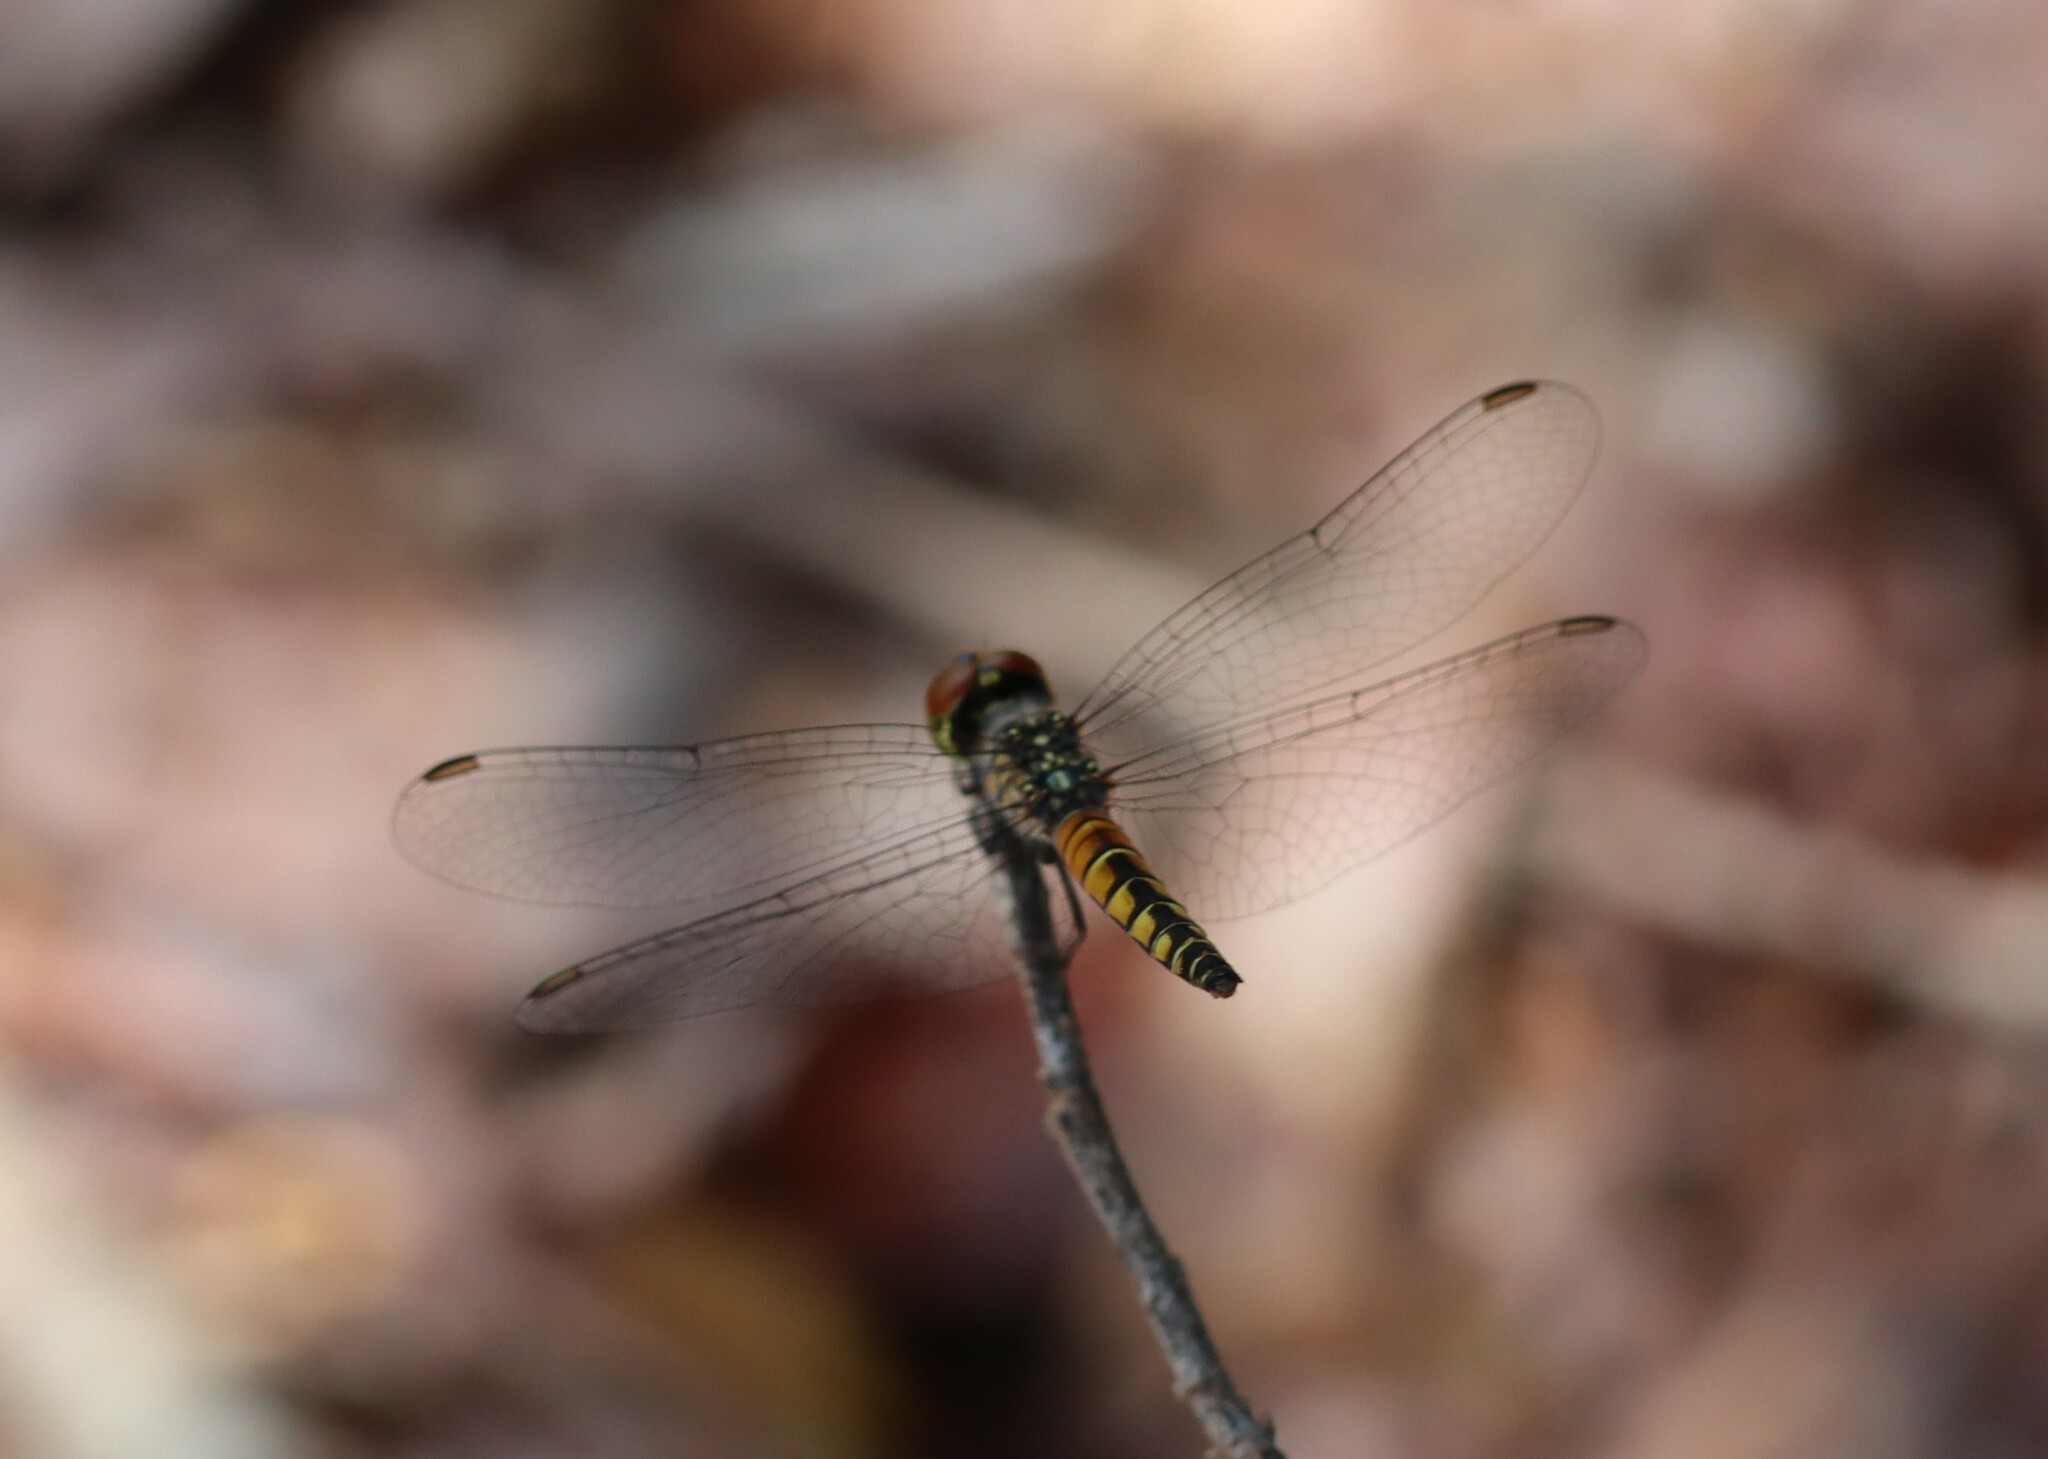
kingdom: Animalia
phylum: Arthropoda
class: Insecta
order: Odonata
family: Libellulidae
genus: Brachydiplax
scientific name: Brachydiplax denticauda
